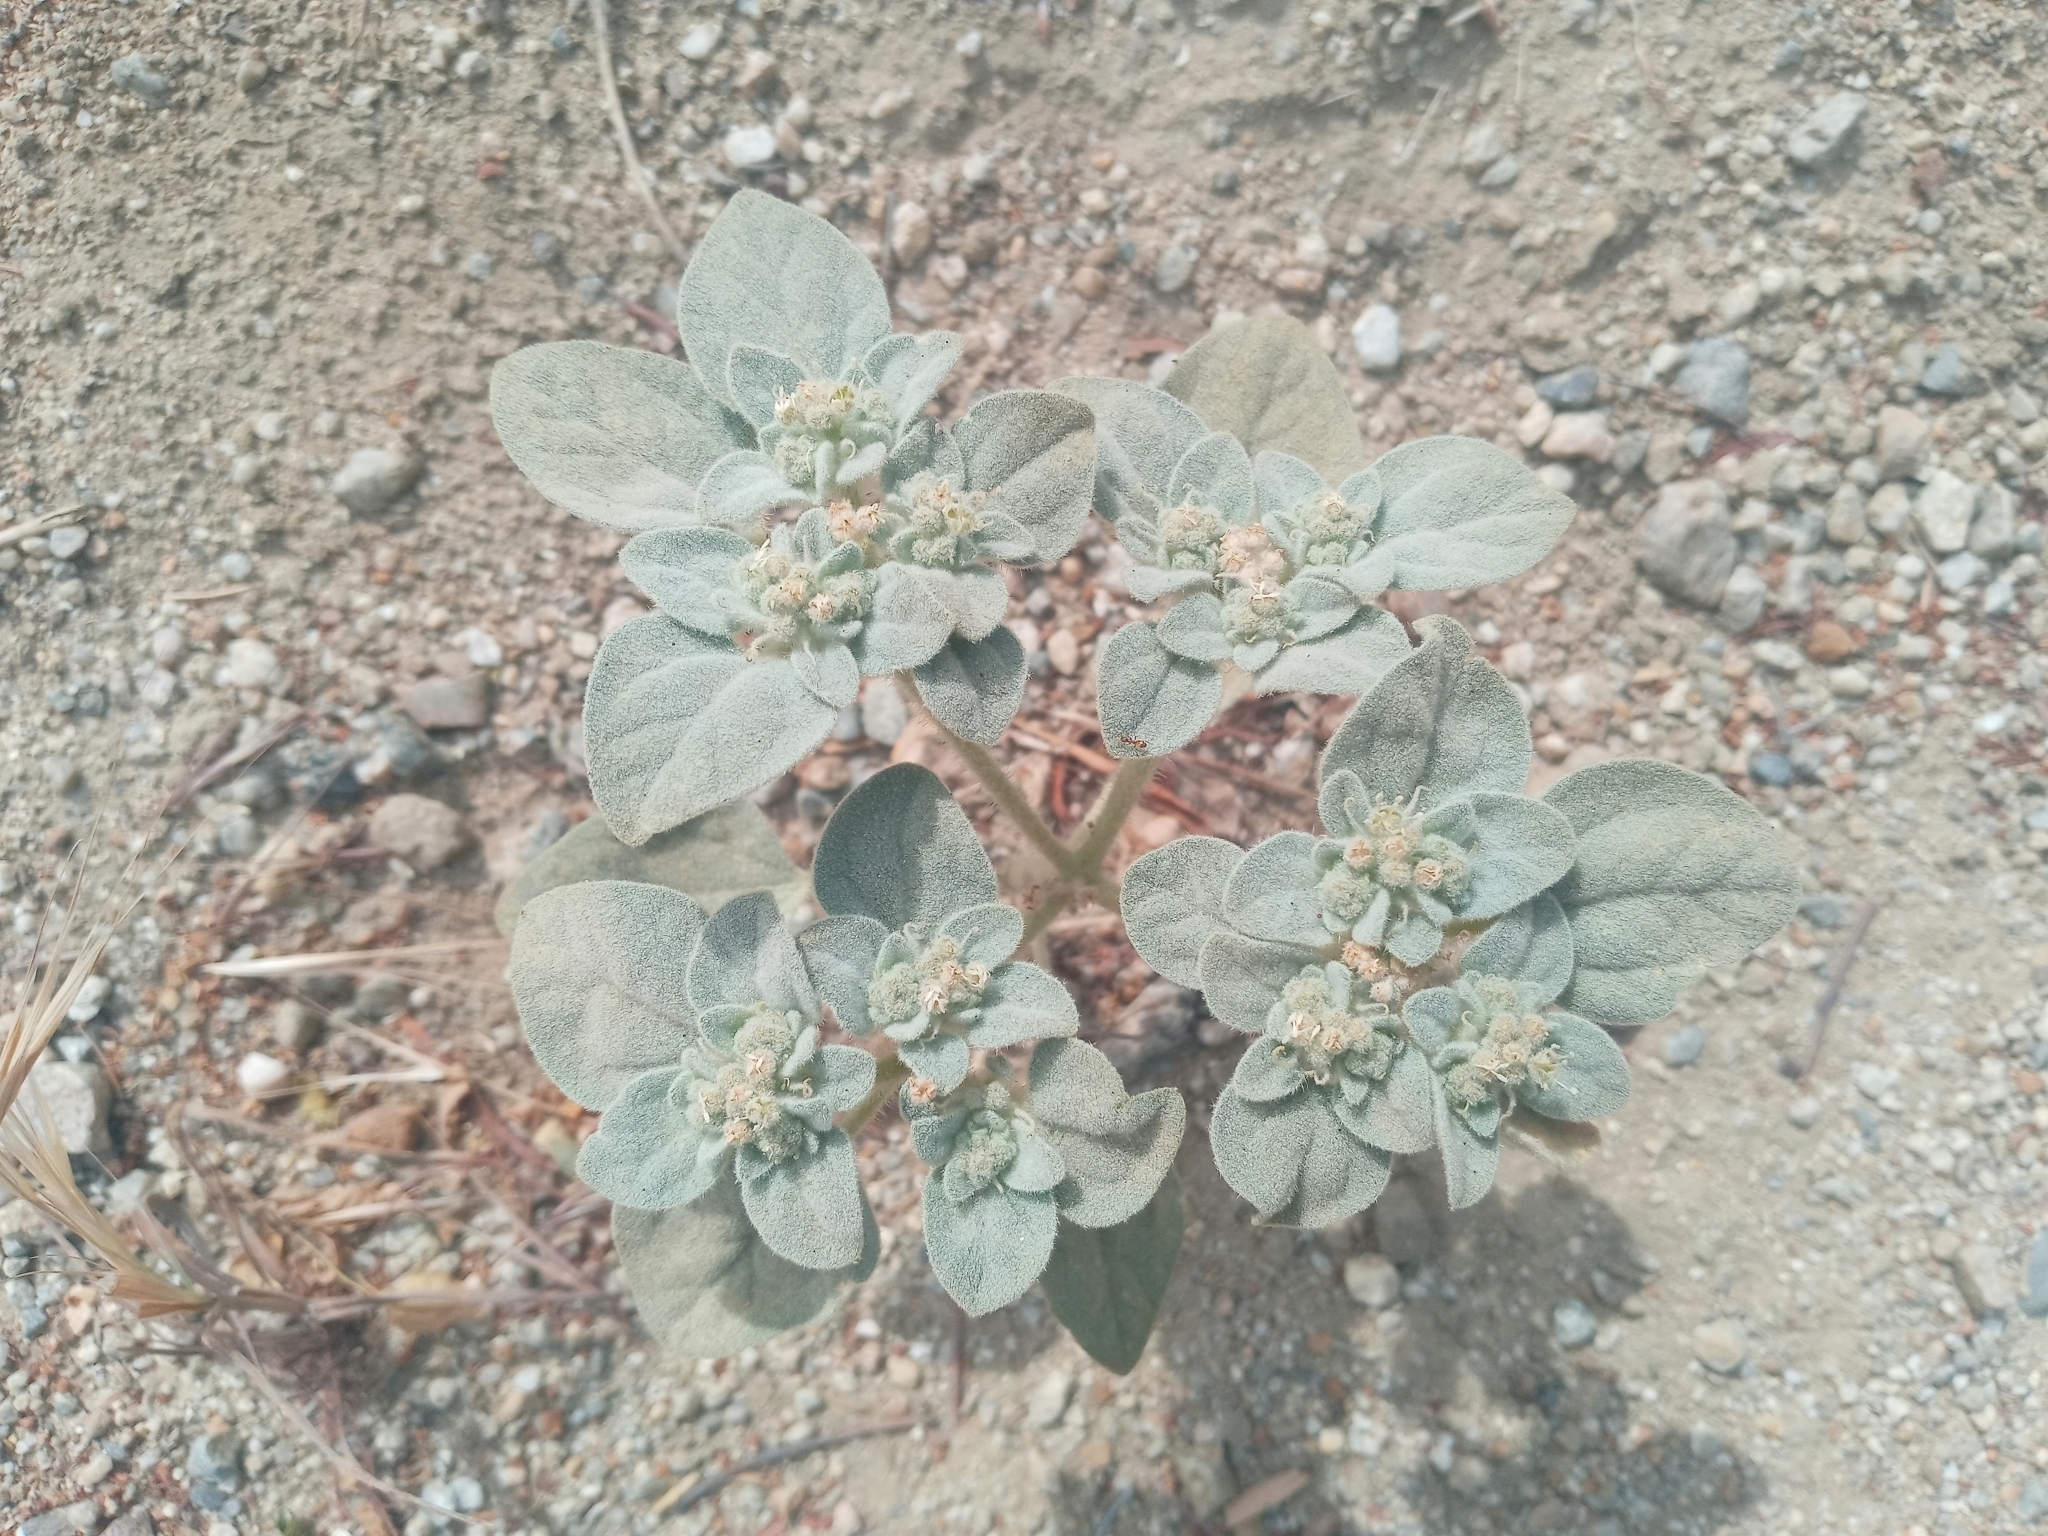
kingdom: Plantae
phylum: Tracheophyta
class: Magnoliopsida
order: Malpighiales
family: Euphorbiaceae
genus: Croton
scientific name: Croton setiger
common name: Dove weed
